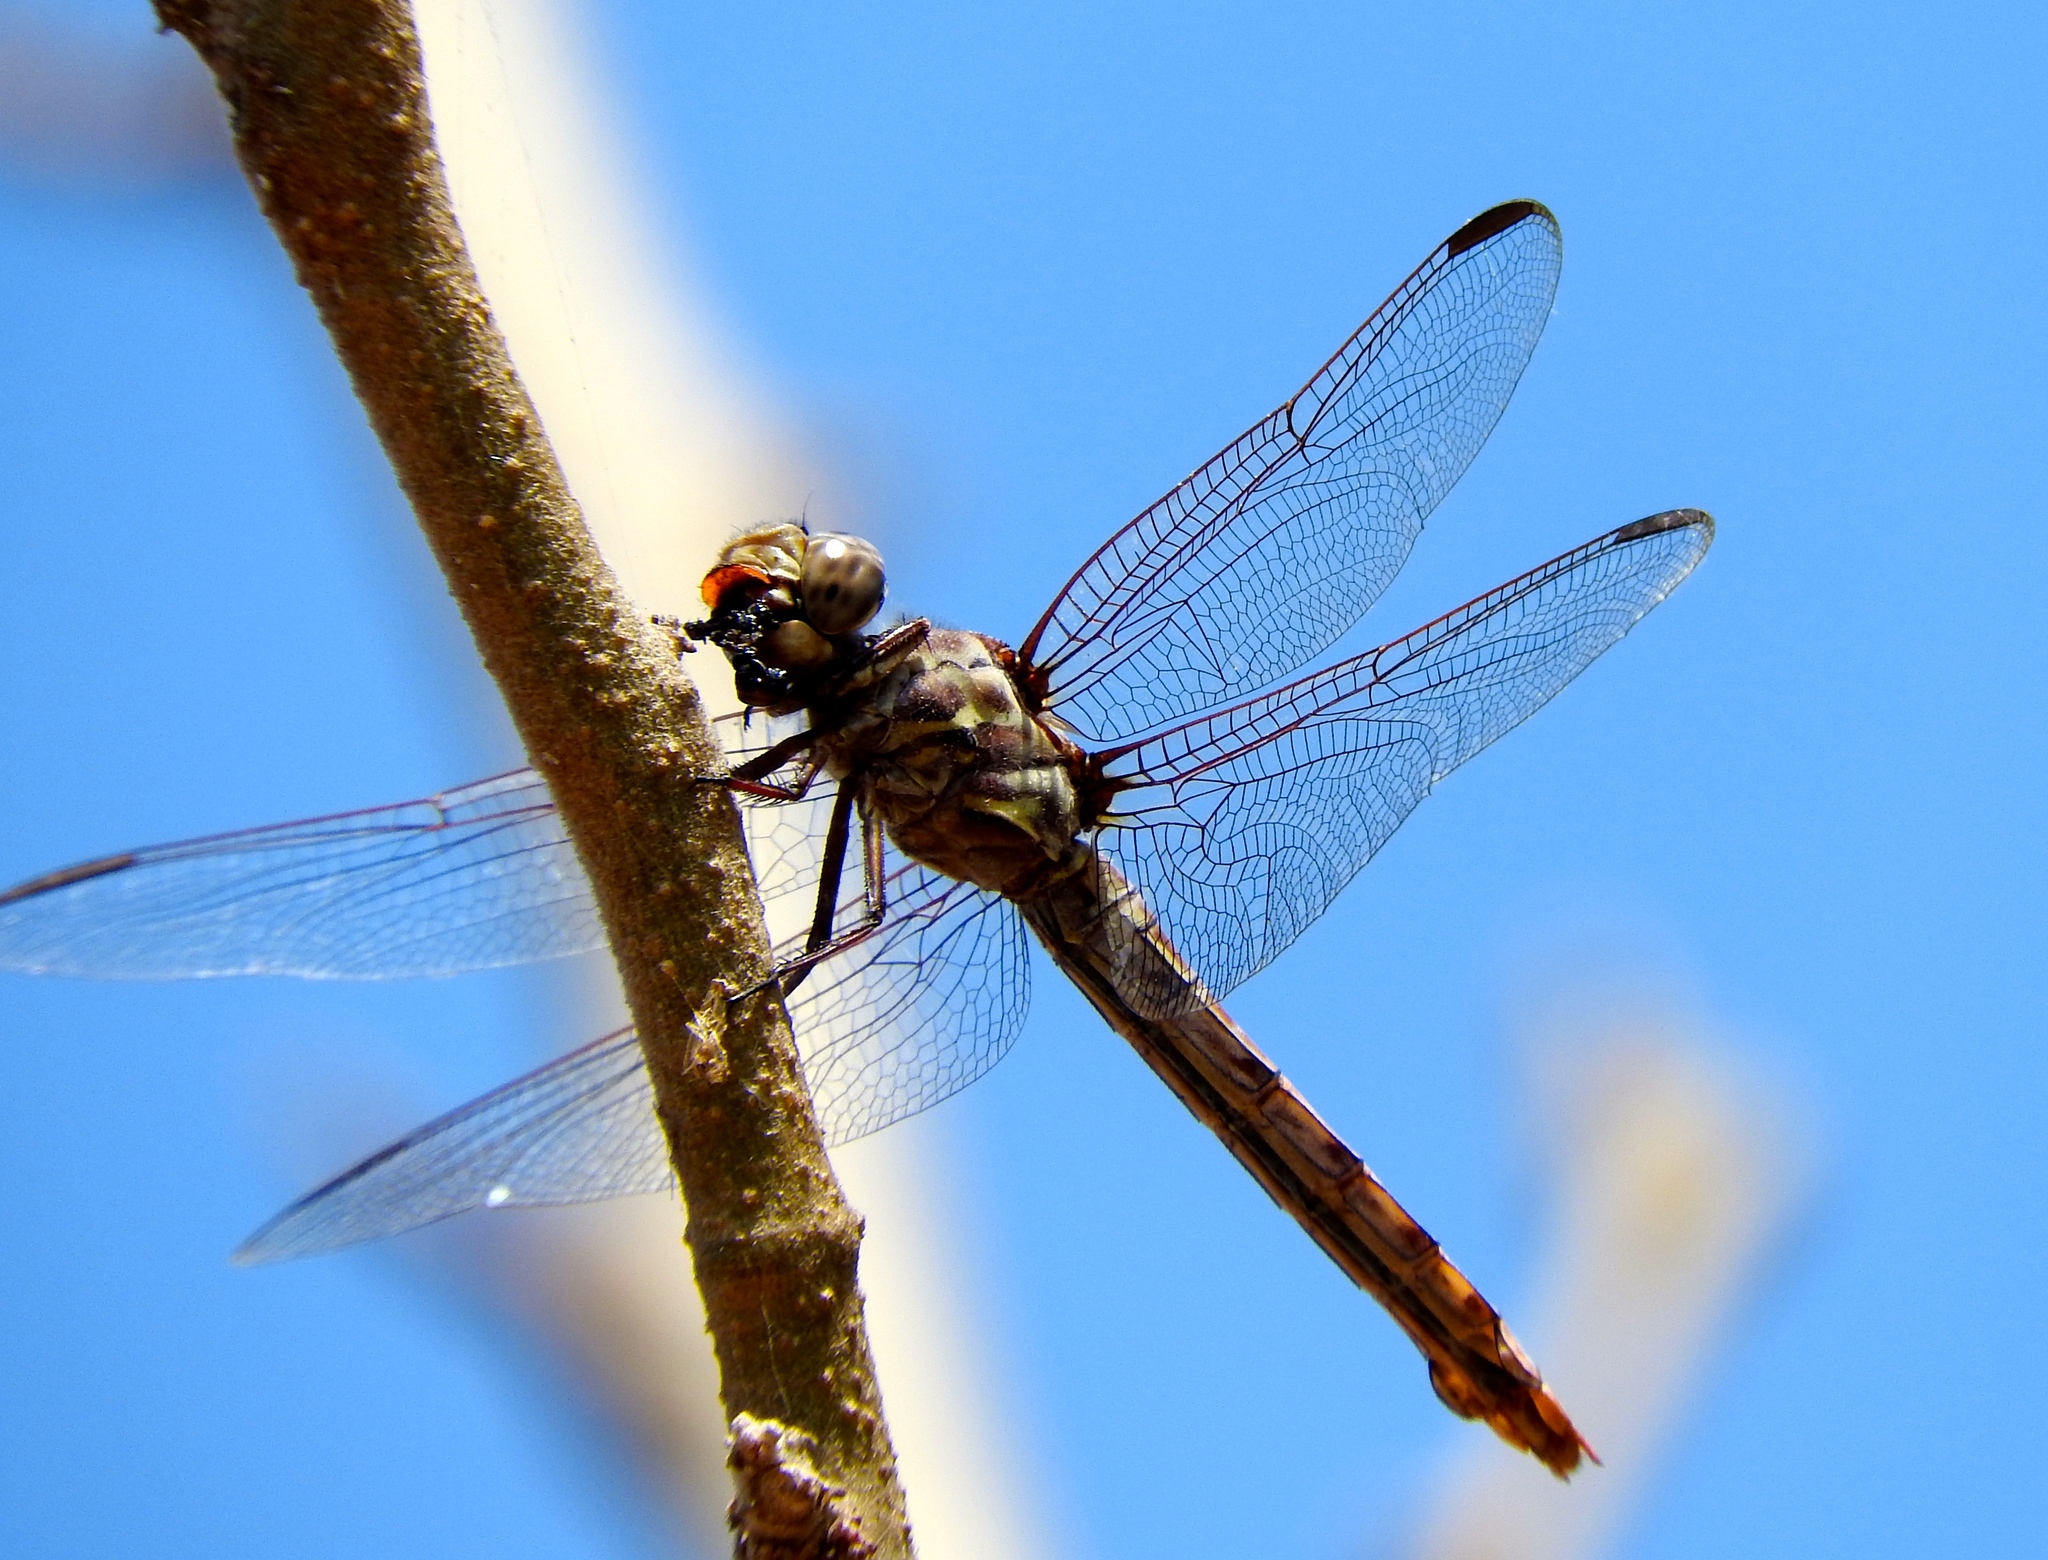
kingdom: Animalia
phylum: Arthropoda
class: Insecta
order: Odonata
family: Libellulidae
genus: Orthemis
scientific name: Orthemis
